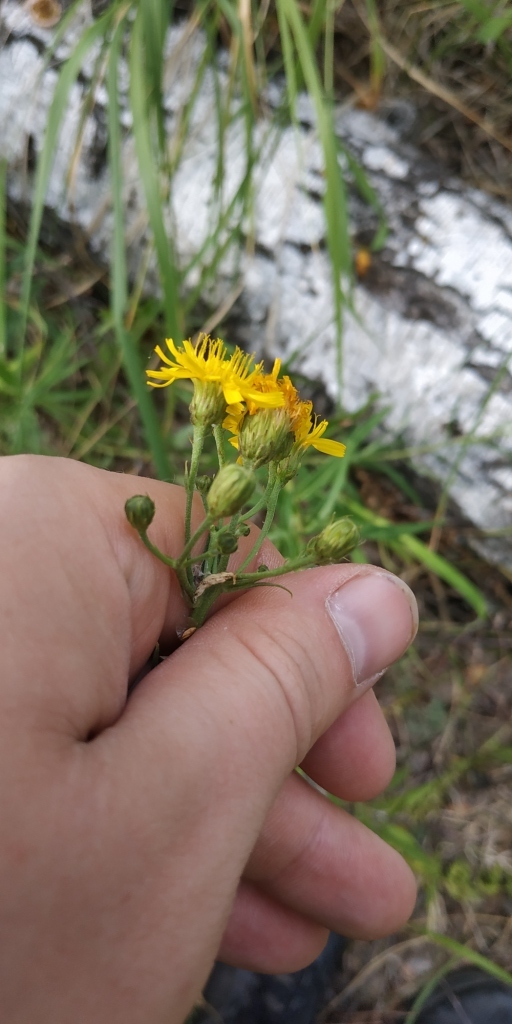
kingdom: Plantae
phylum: Tracheophyta
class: Magnoliopsida
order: Asterales
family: Asteraceae
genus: Hieracium
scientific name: Hieracium umbellatum
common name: Northern hawkweed
